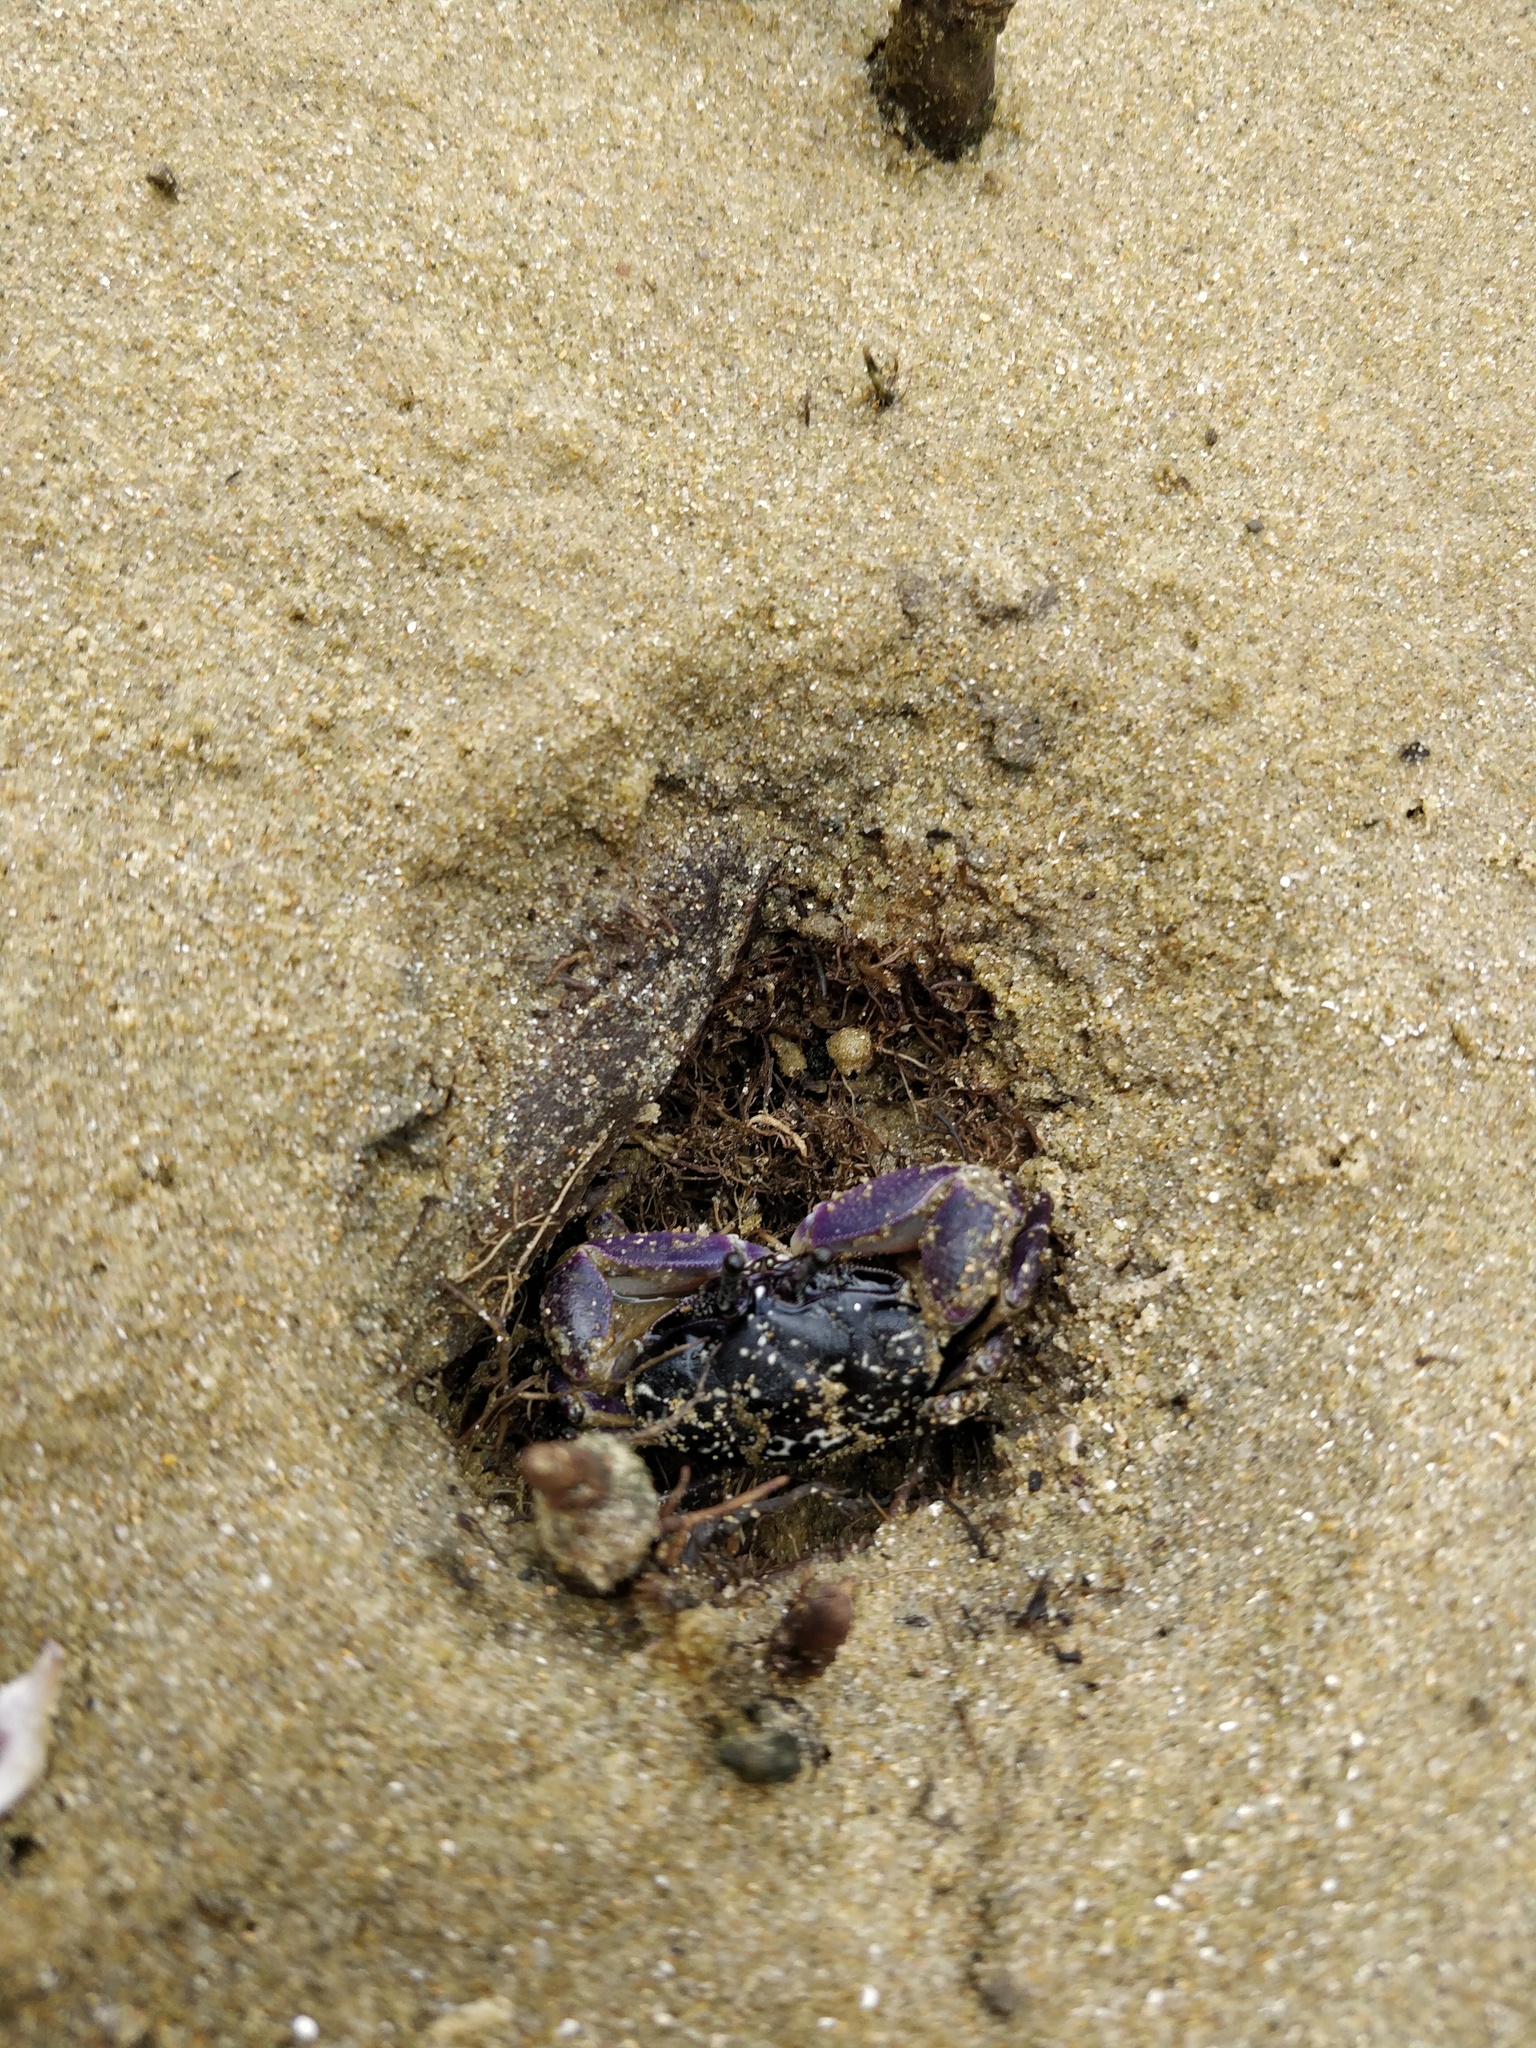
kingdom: Animalia
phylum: Arthropoda
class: Malacostraca
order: Decapoda
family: Heloeciidae
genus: Heloecius
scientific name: Heloecius cordiformis
